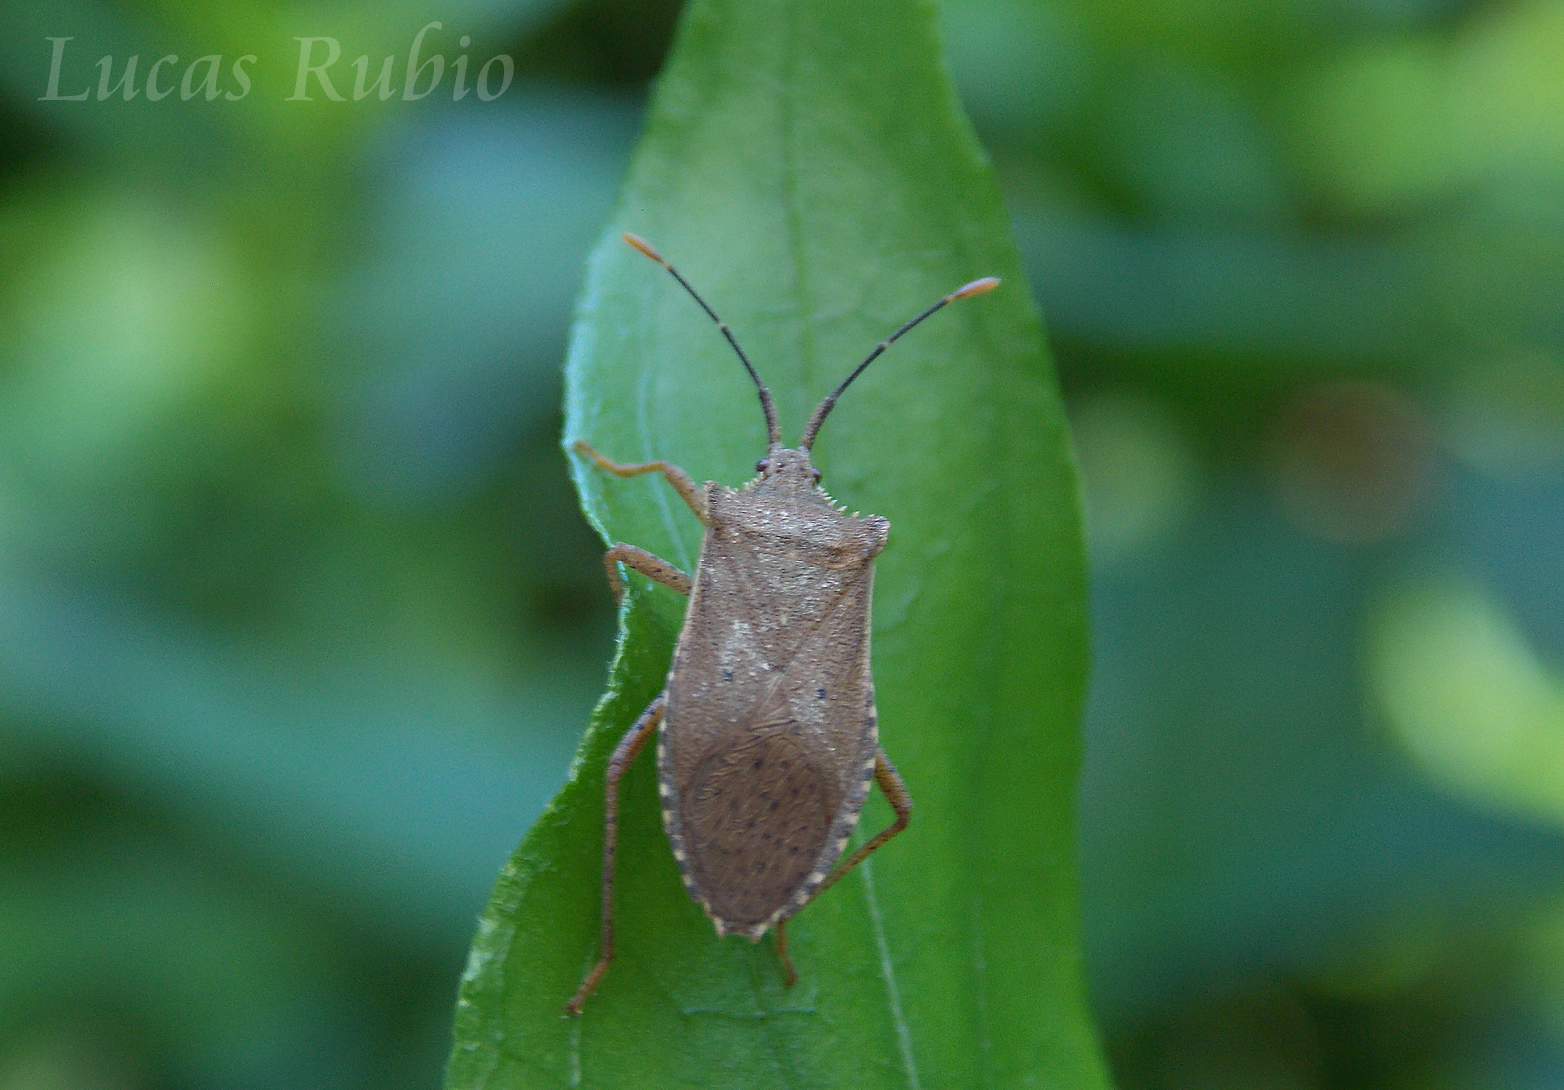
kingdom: Animalia
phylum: Arthropoda
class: Insecta
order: Hemiptera
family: Coreidae
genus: Anasa
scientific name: Anasa guttifera
